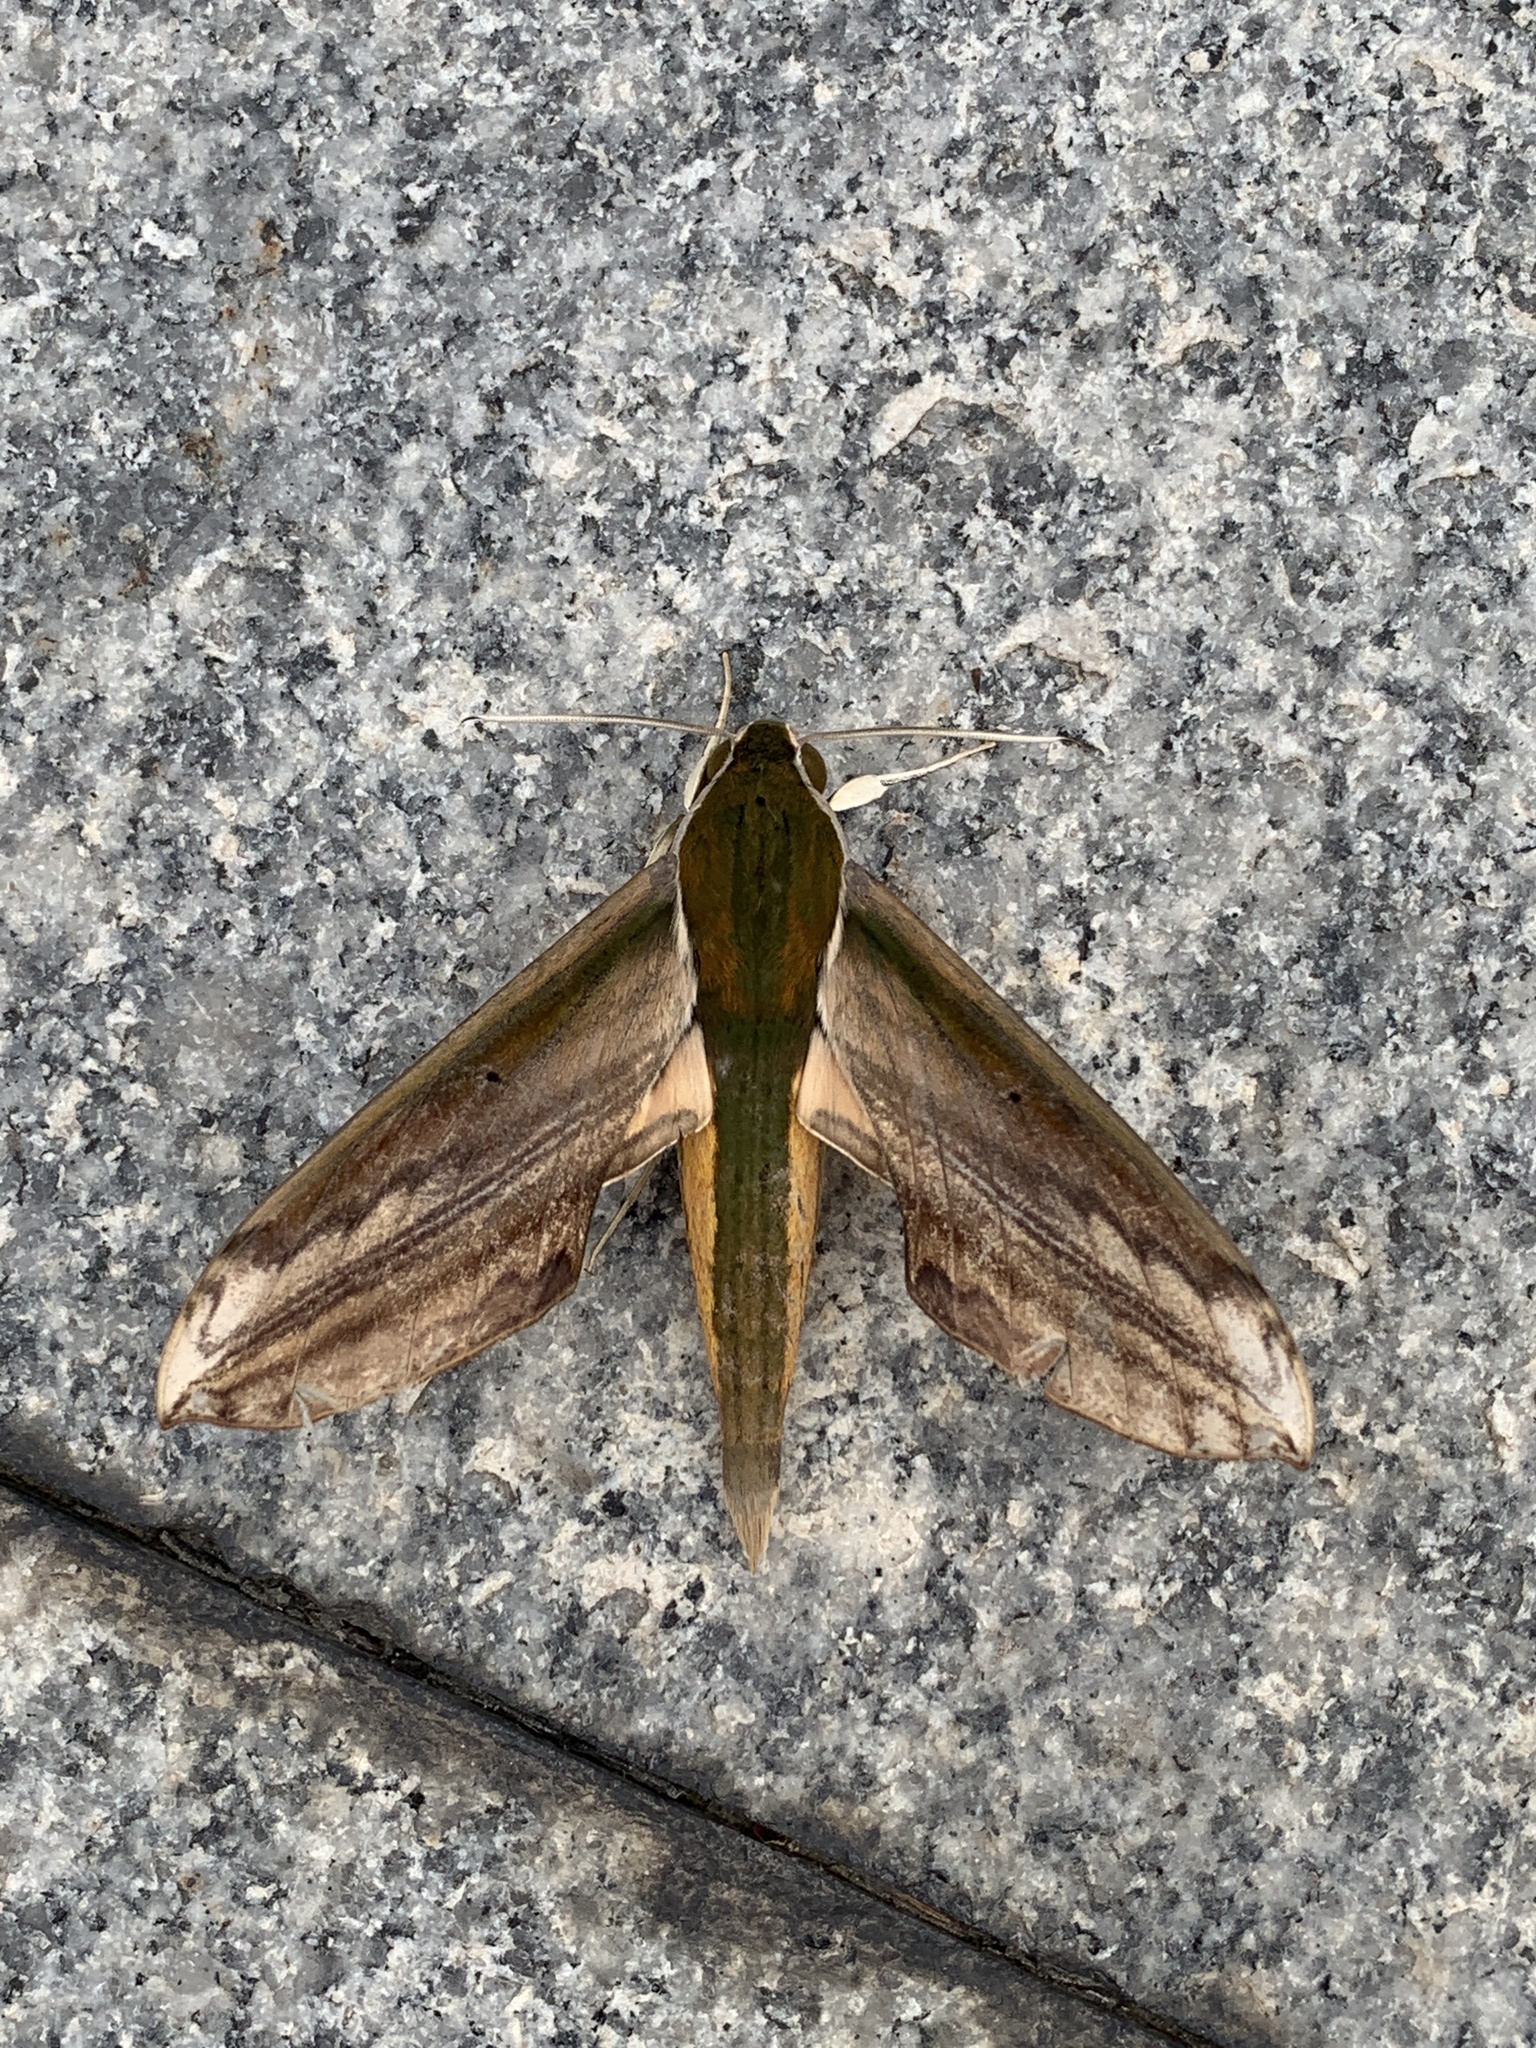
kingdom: Animalia
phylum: Arthropoda
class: Insecta
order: Lepidoptera
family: Sphingidae
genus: Theretra
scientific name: Theretra nessus
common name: Yam hawk moth
